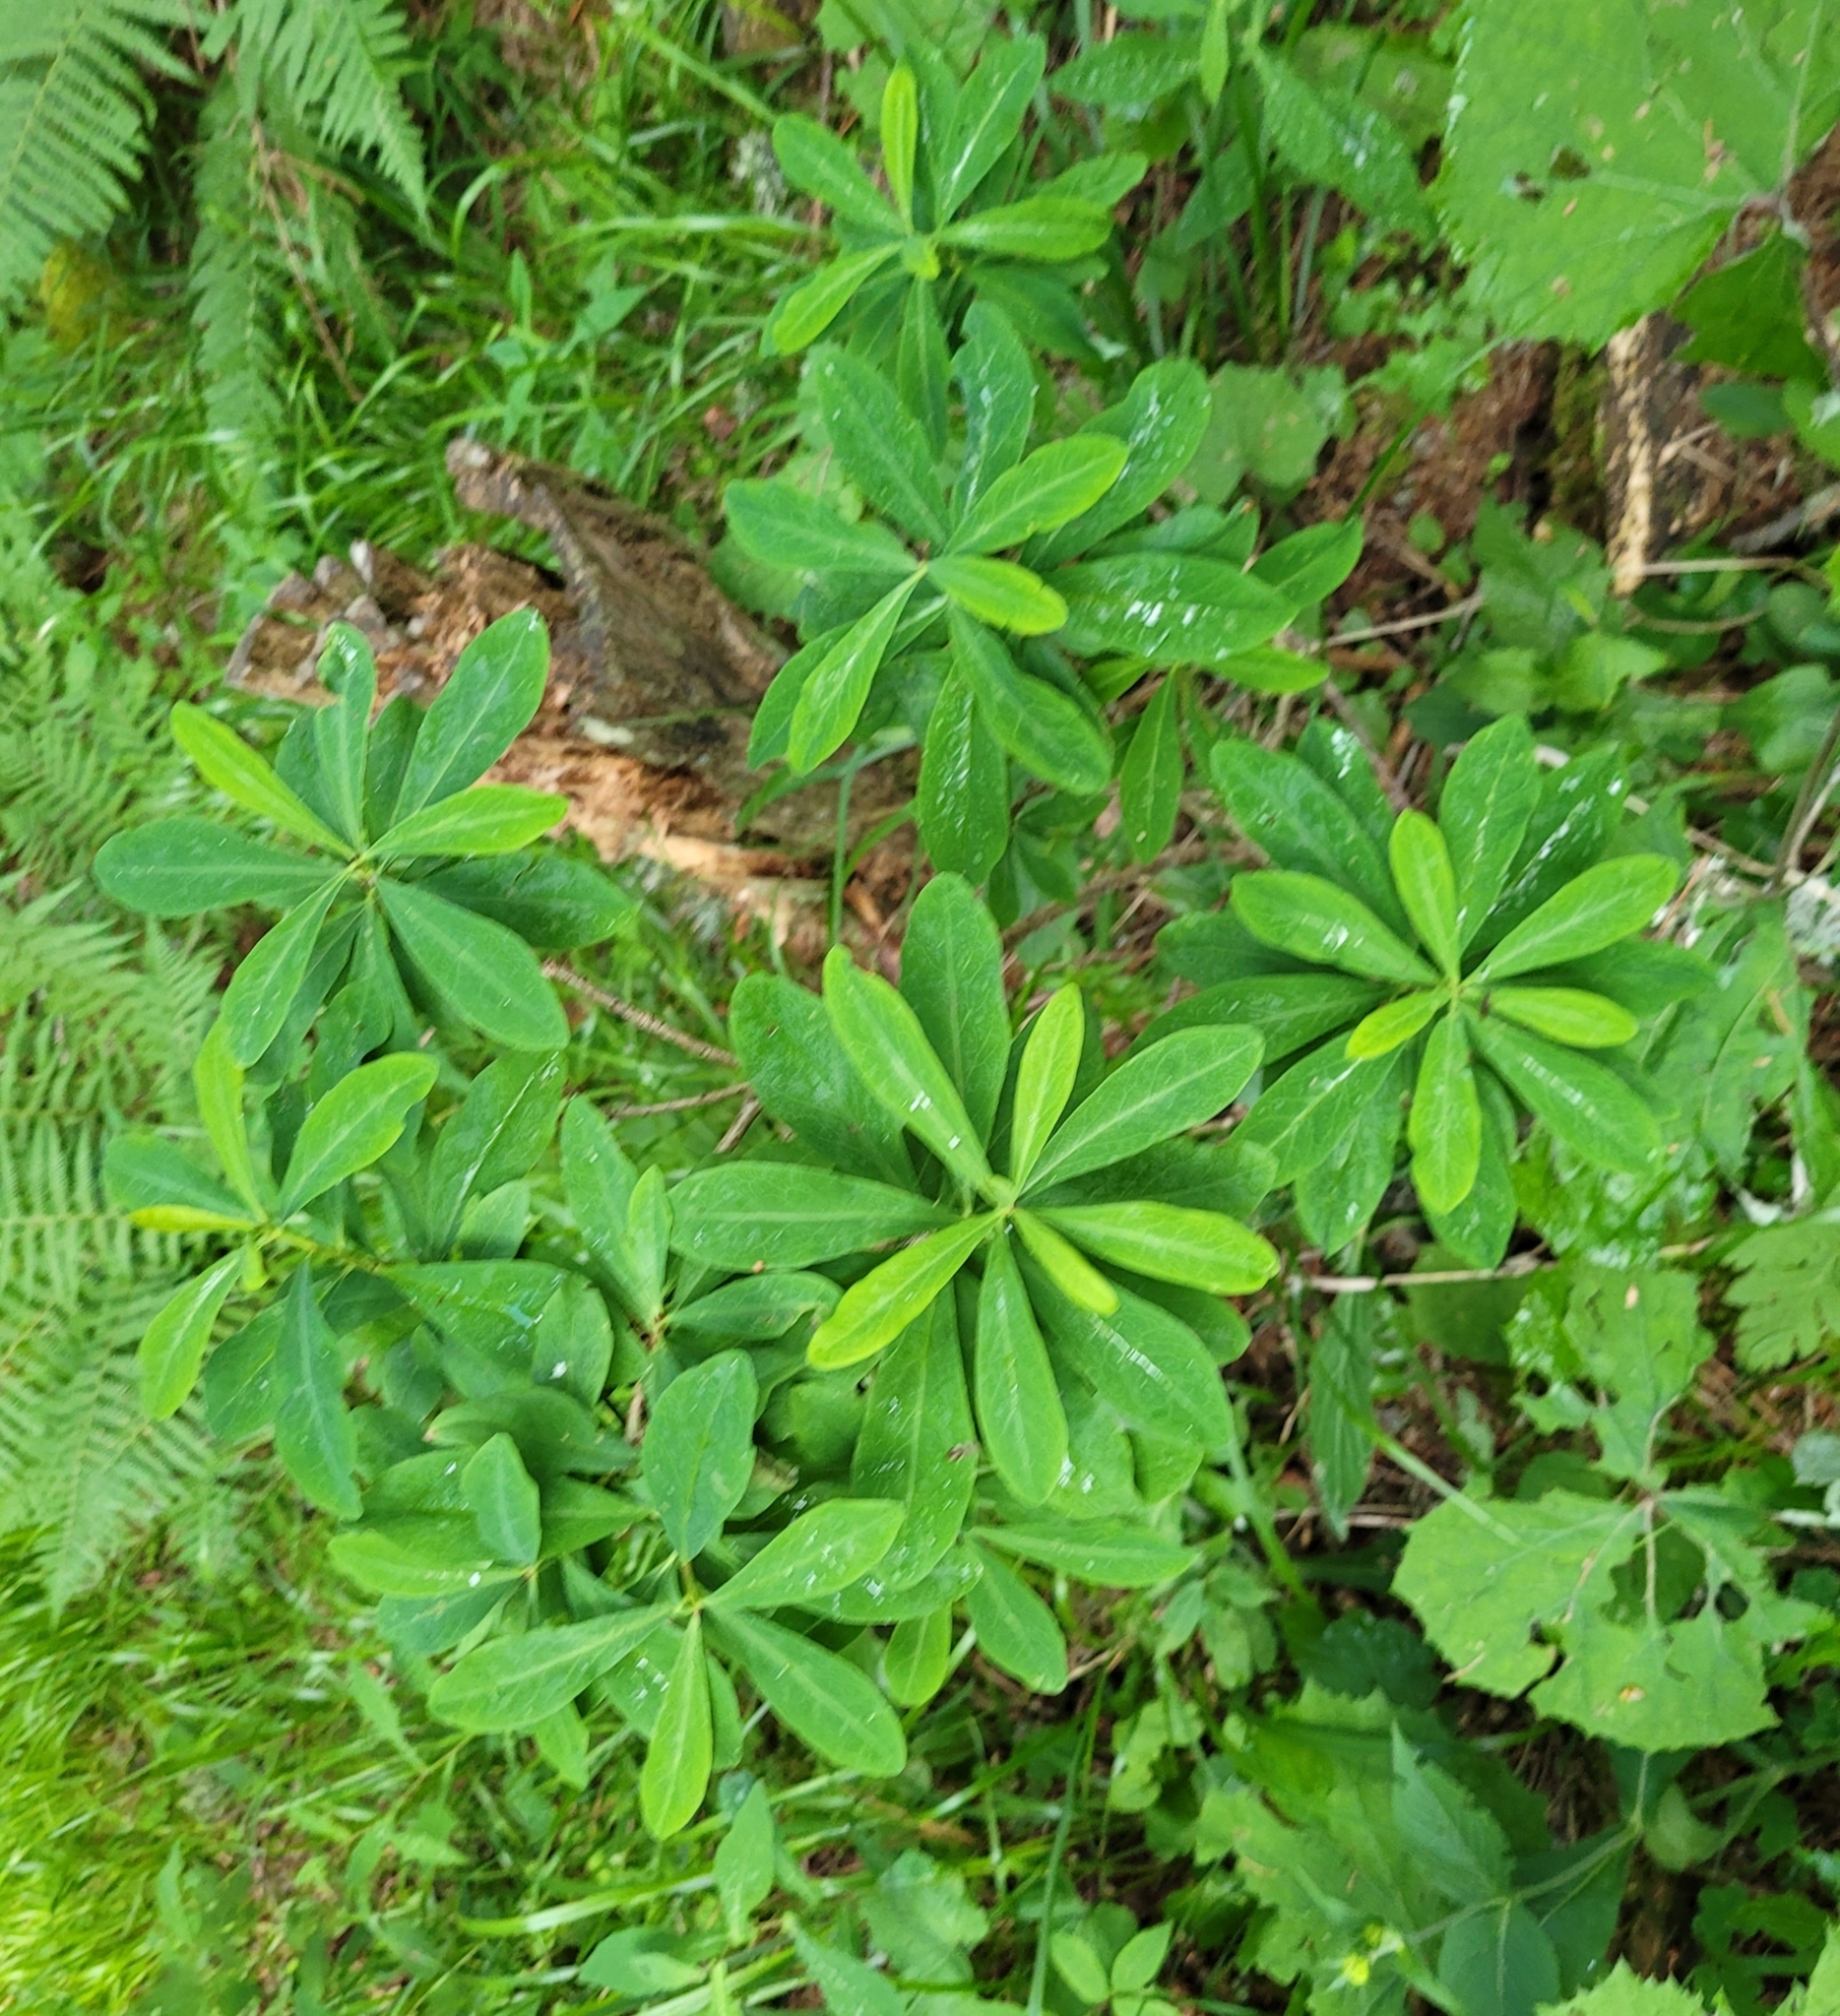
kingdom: Plantae
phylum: Tracheophyta
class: Magnoliopsida
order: Malvales
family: Thymelaeaceae
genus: Daphne
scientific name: Daphne mezereum
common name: Mezereon
